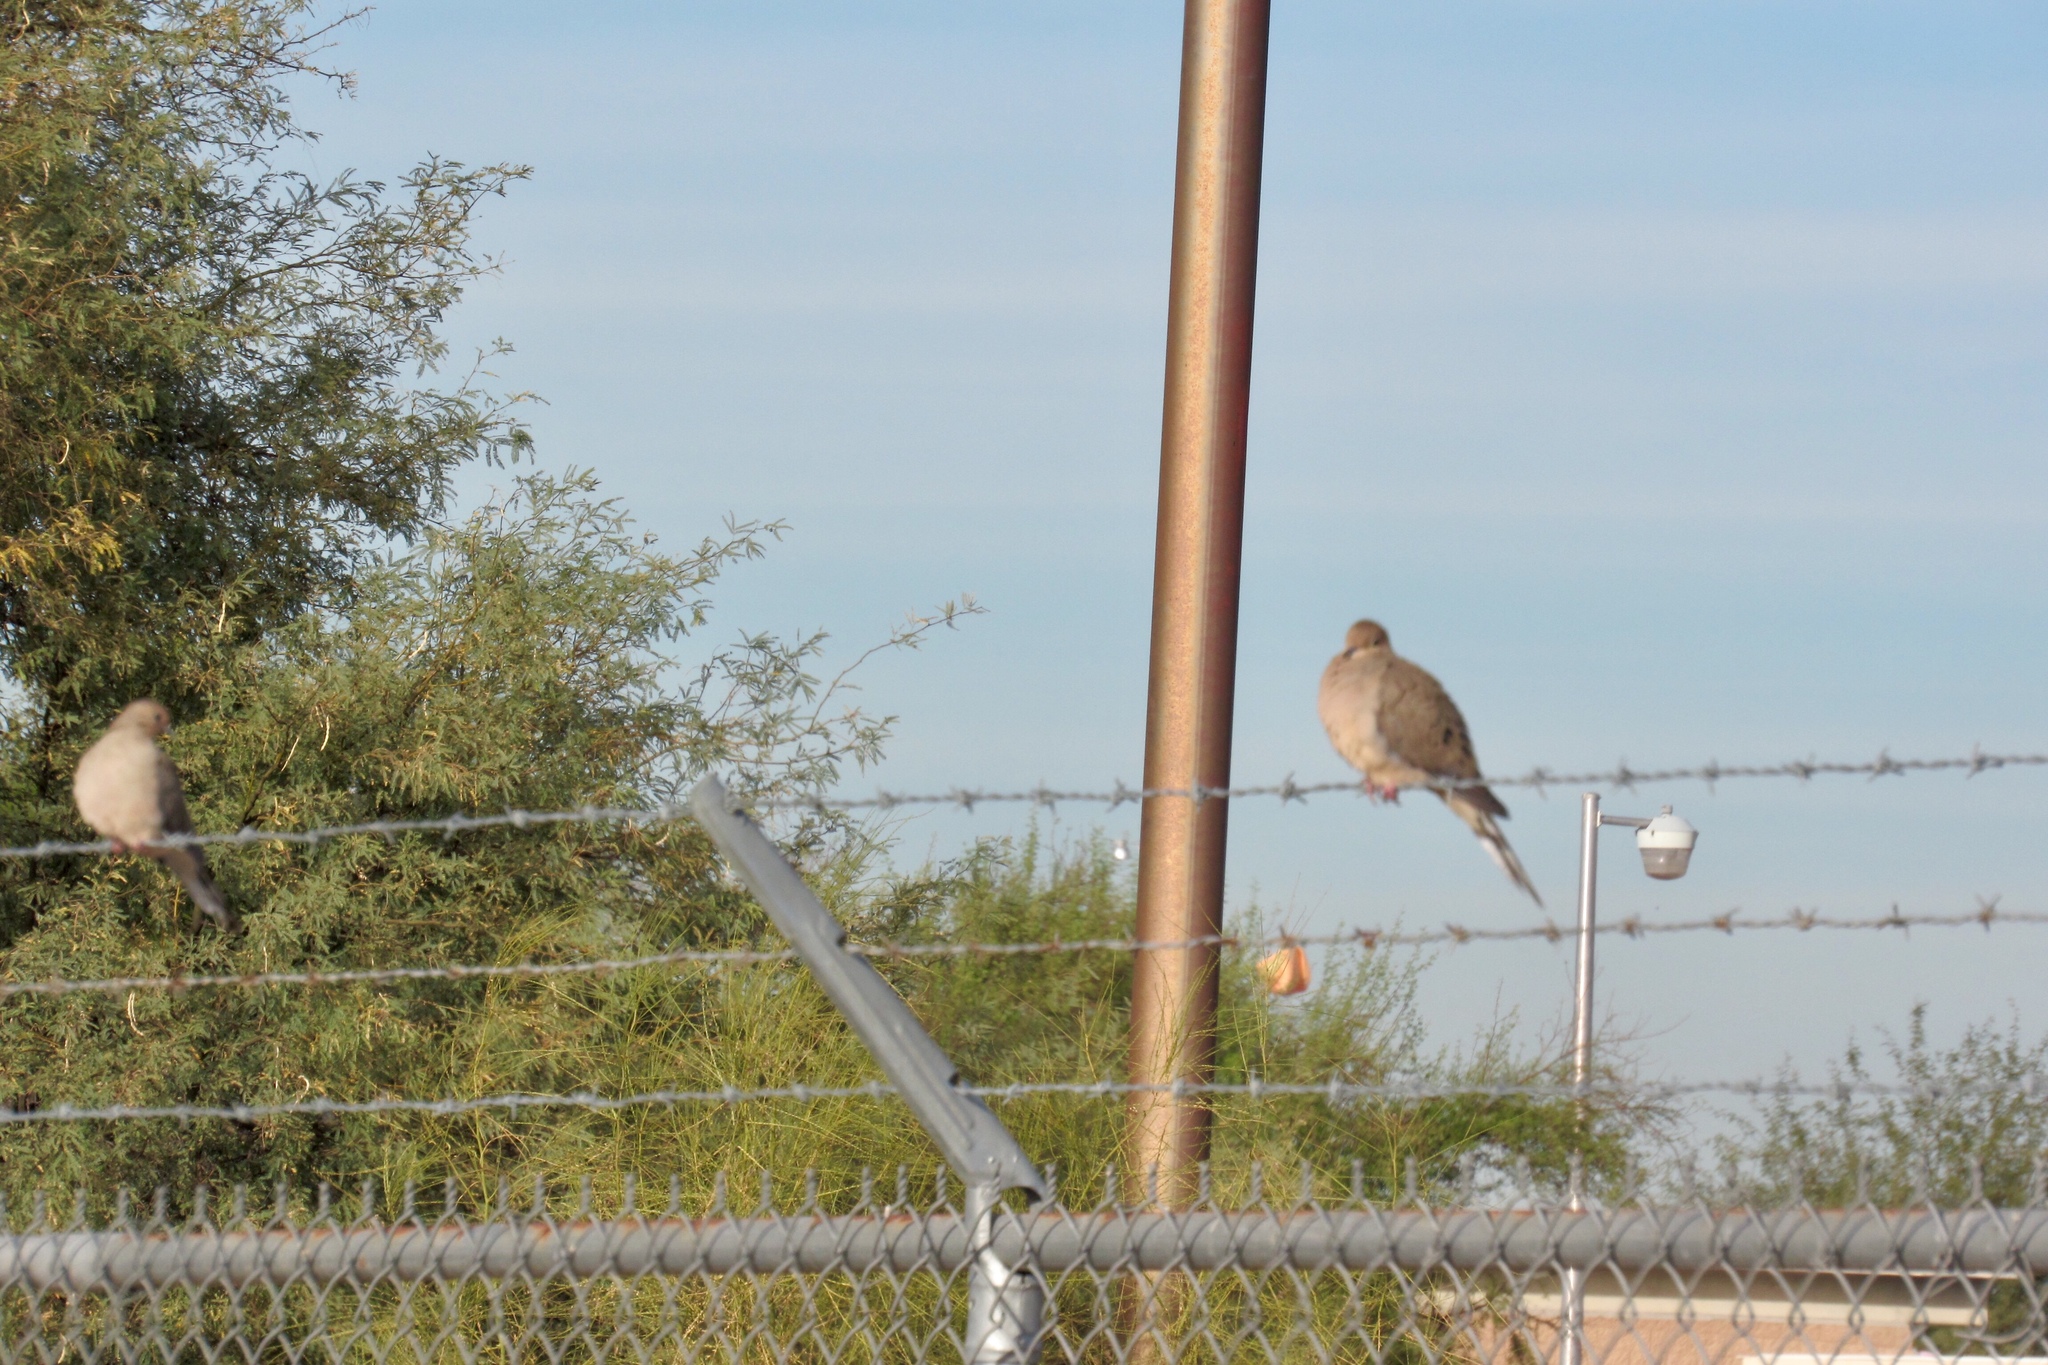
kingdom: Animalia
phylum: Chordata
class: Aves
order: Columbiformes
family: Columbidae
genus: Zenaida
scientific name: Zenaida macroura
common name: Mourning dove
